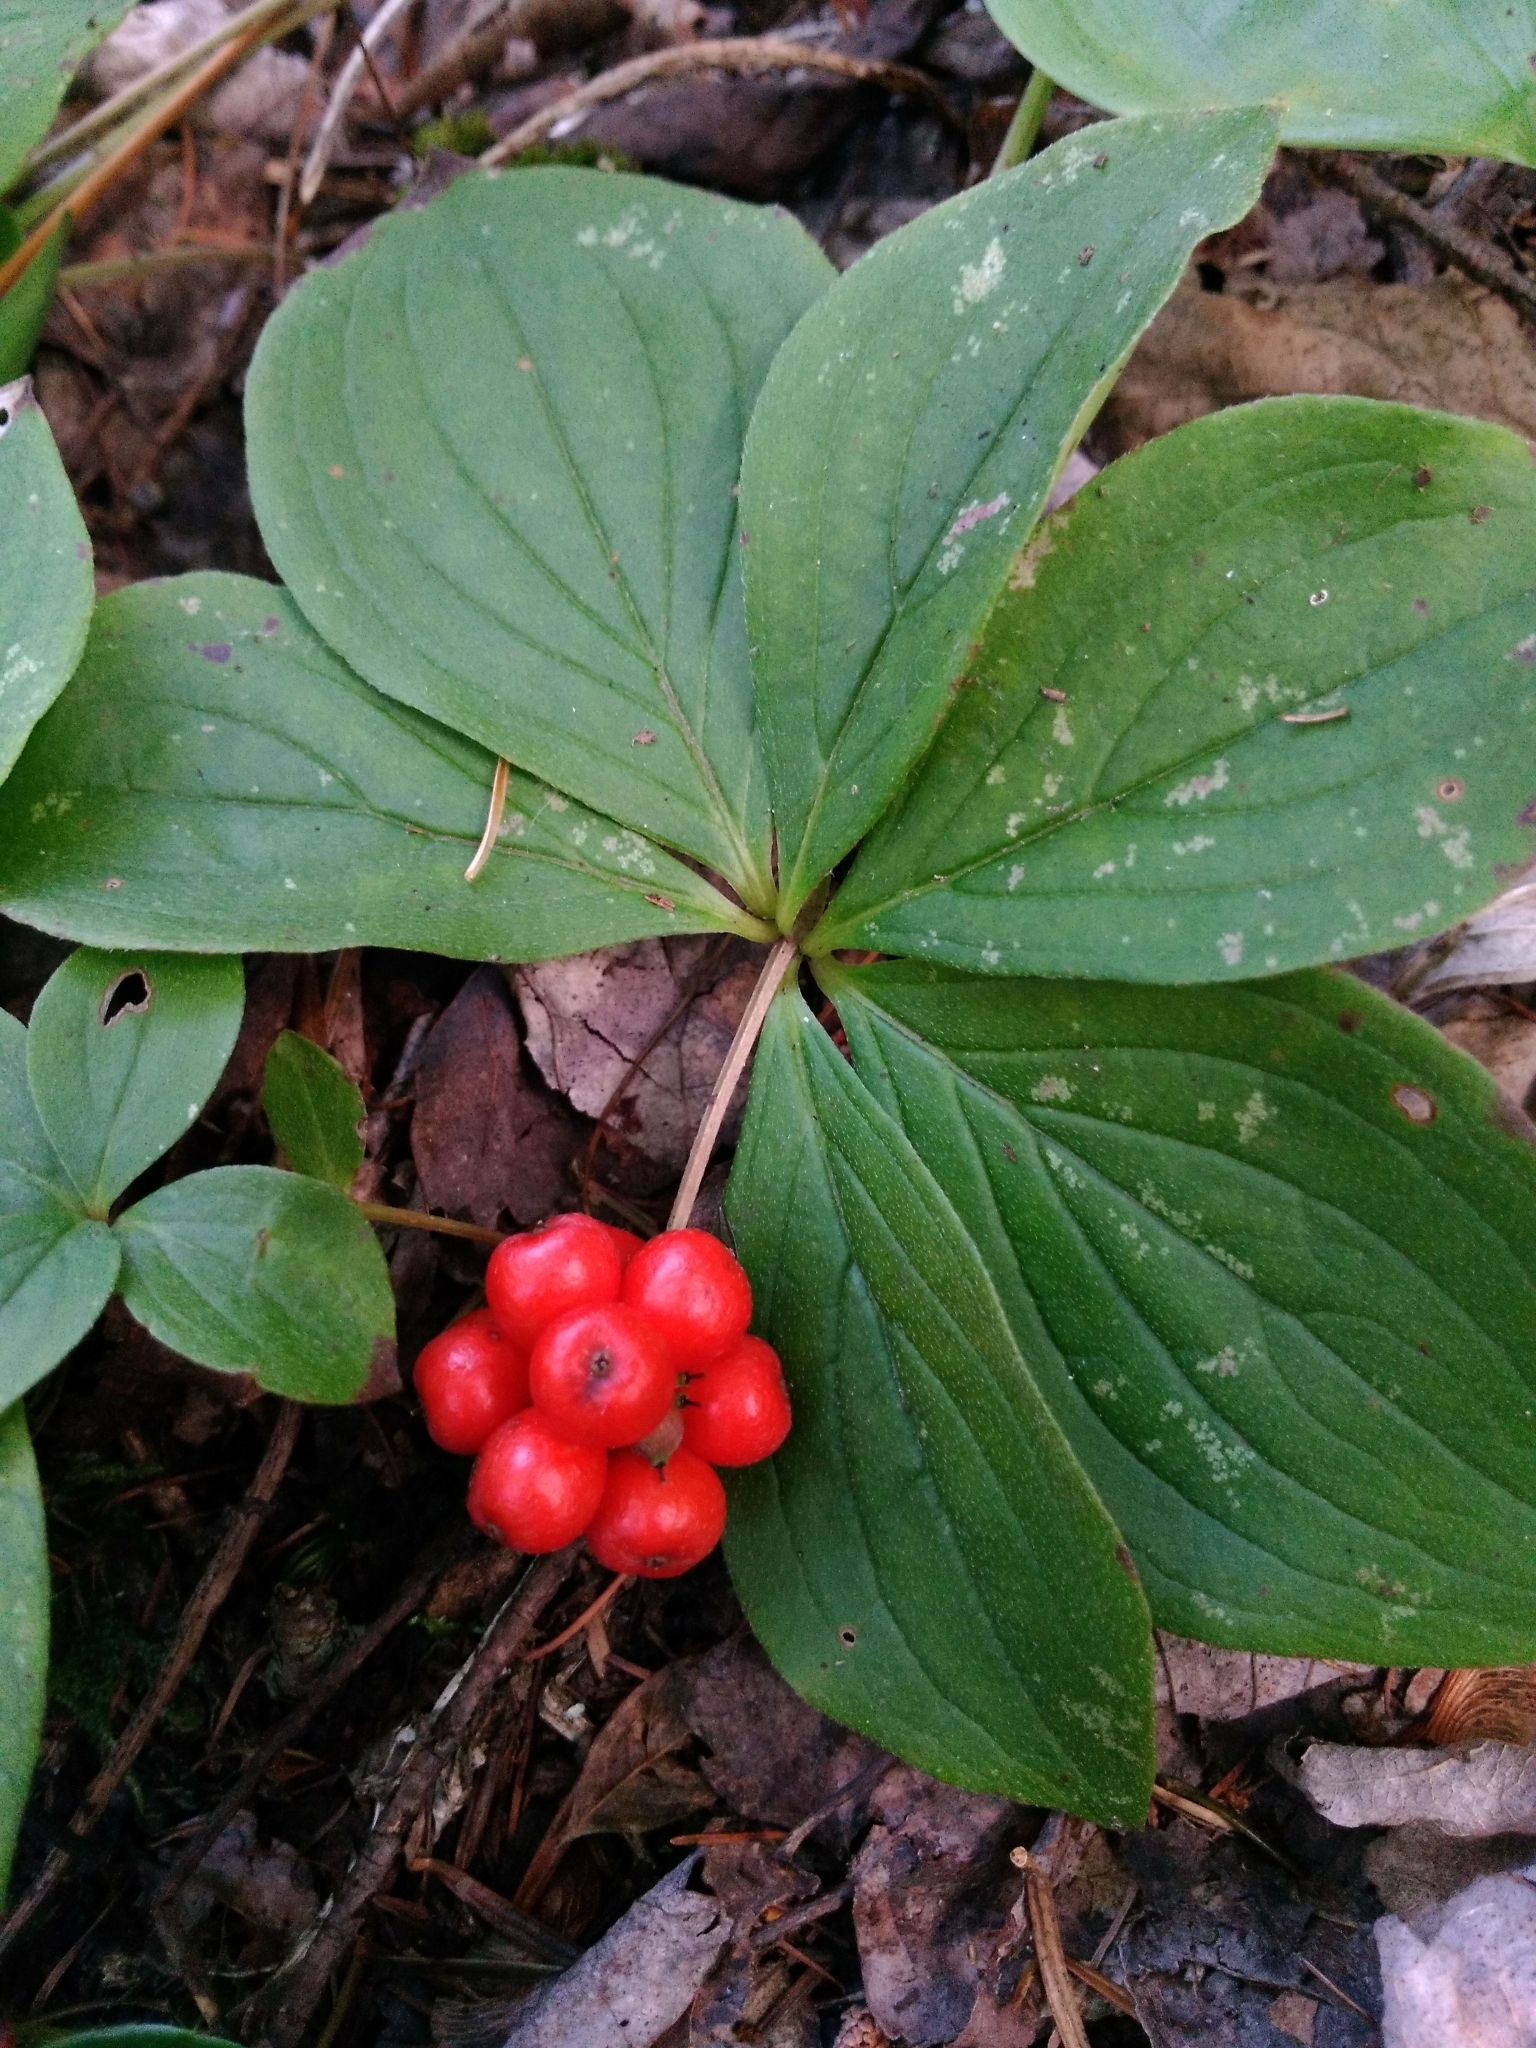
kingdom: Plantae
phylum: Tracheophyta
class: Magnoliopsida
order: Cornales
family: Cornaceae
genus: Cornus
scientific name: Cornus canadensis
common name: Creeping dogwood
